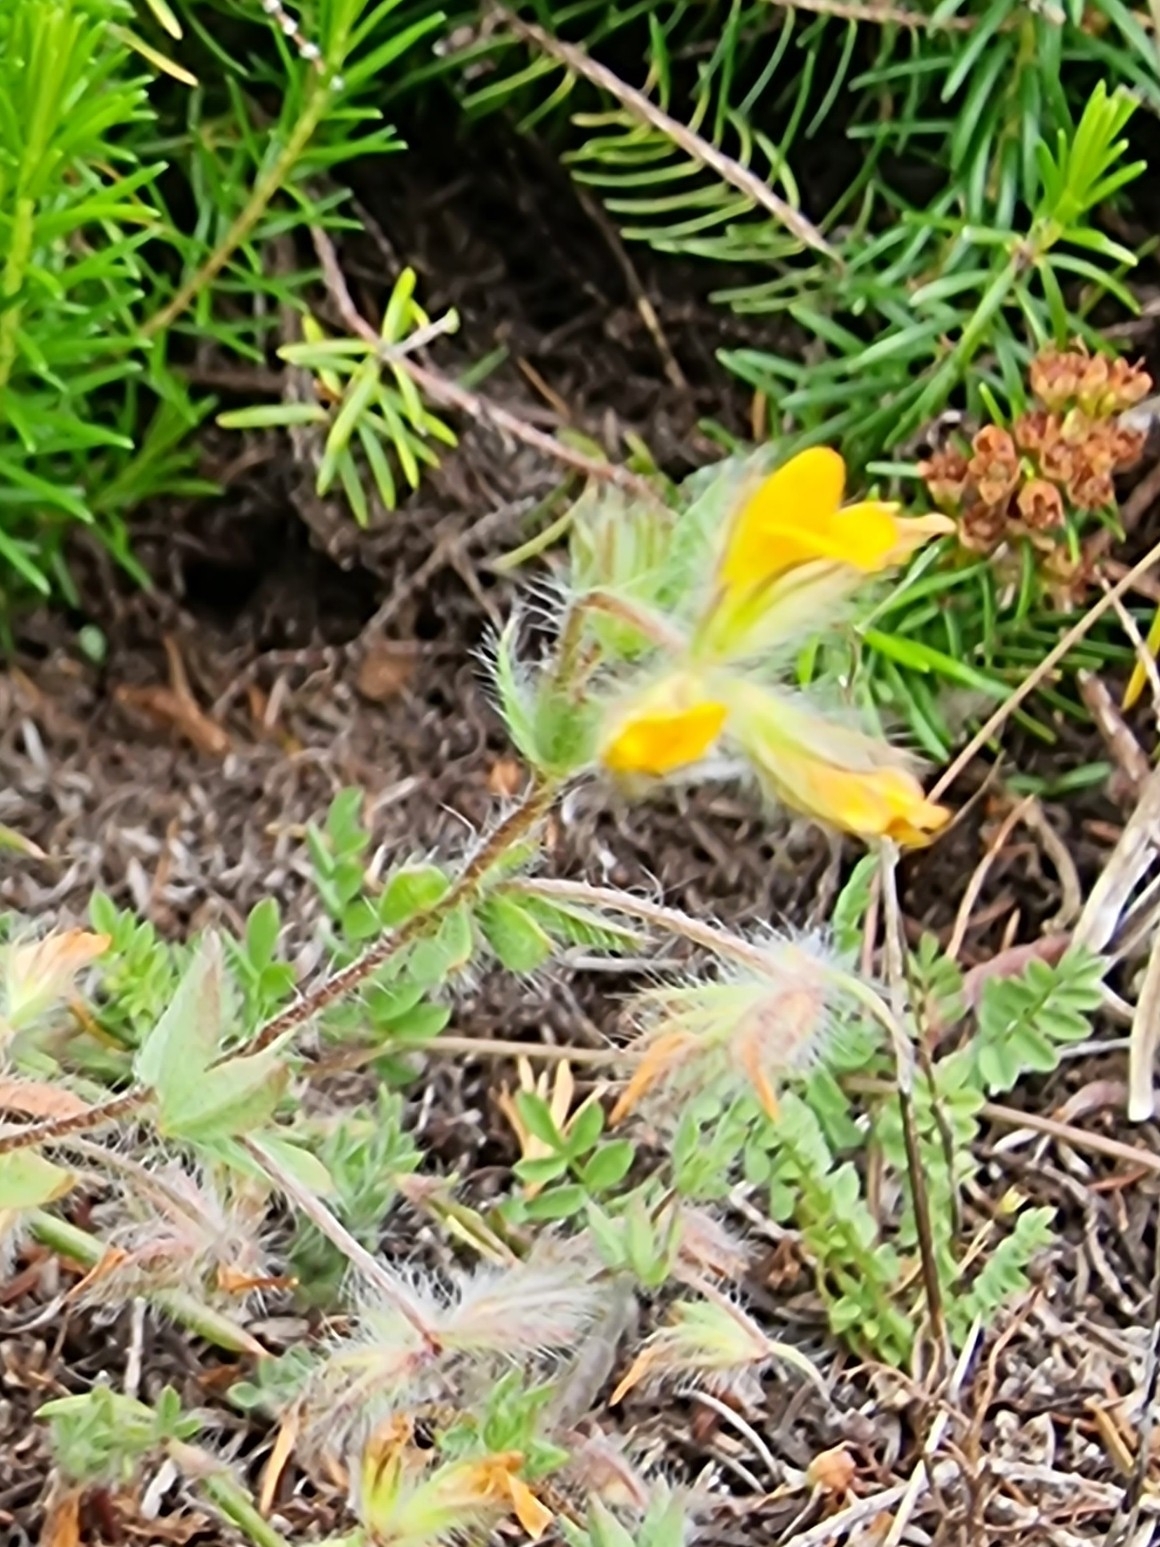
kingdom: Plantae
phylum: Tracheophyta
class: Magnoliopsida
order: Fabales
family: Fabaceae
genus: Lotus
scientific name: Lotus hispidus
